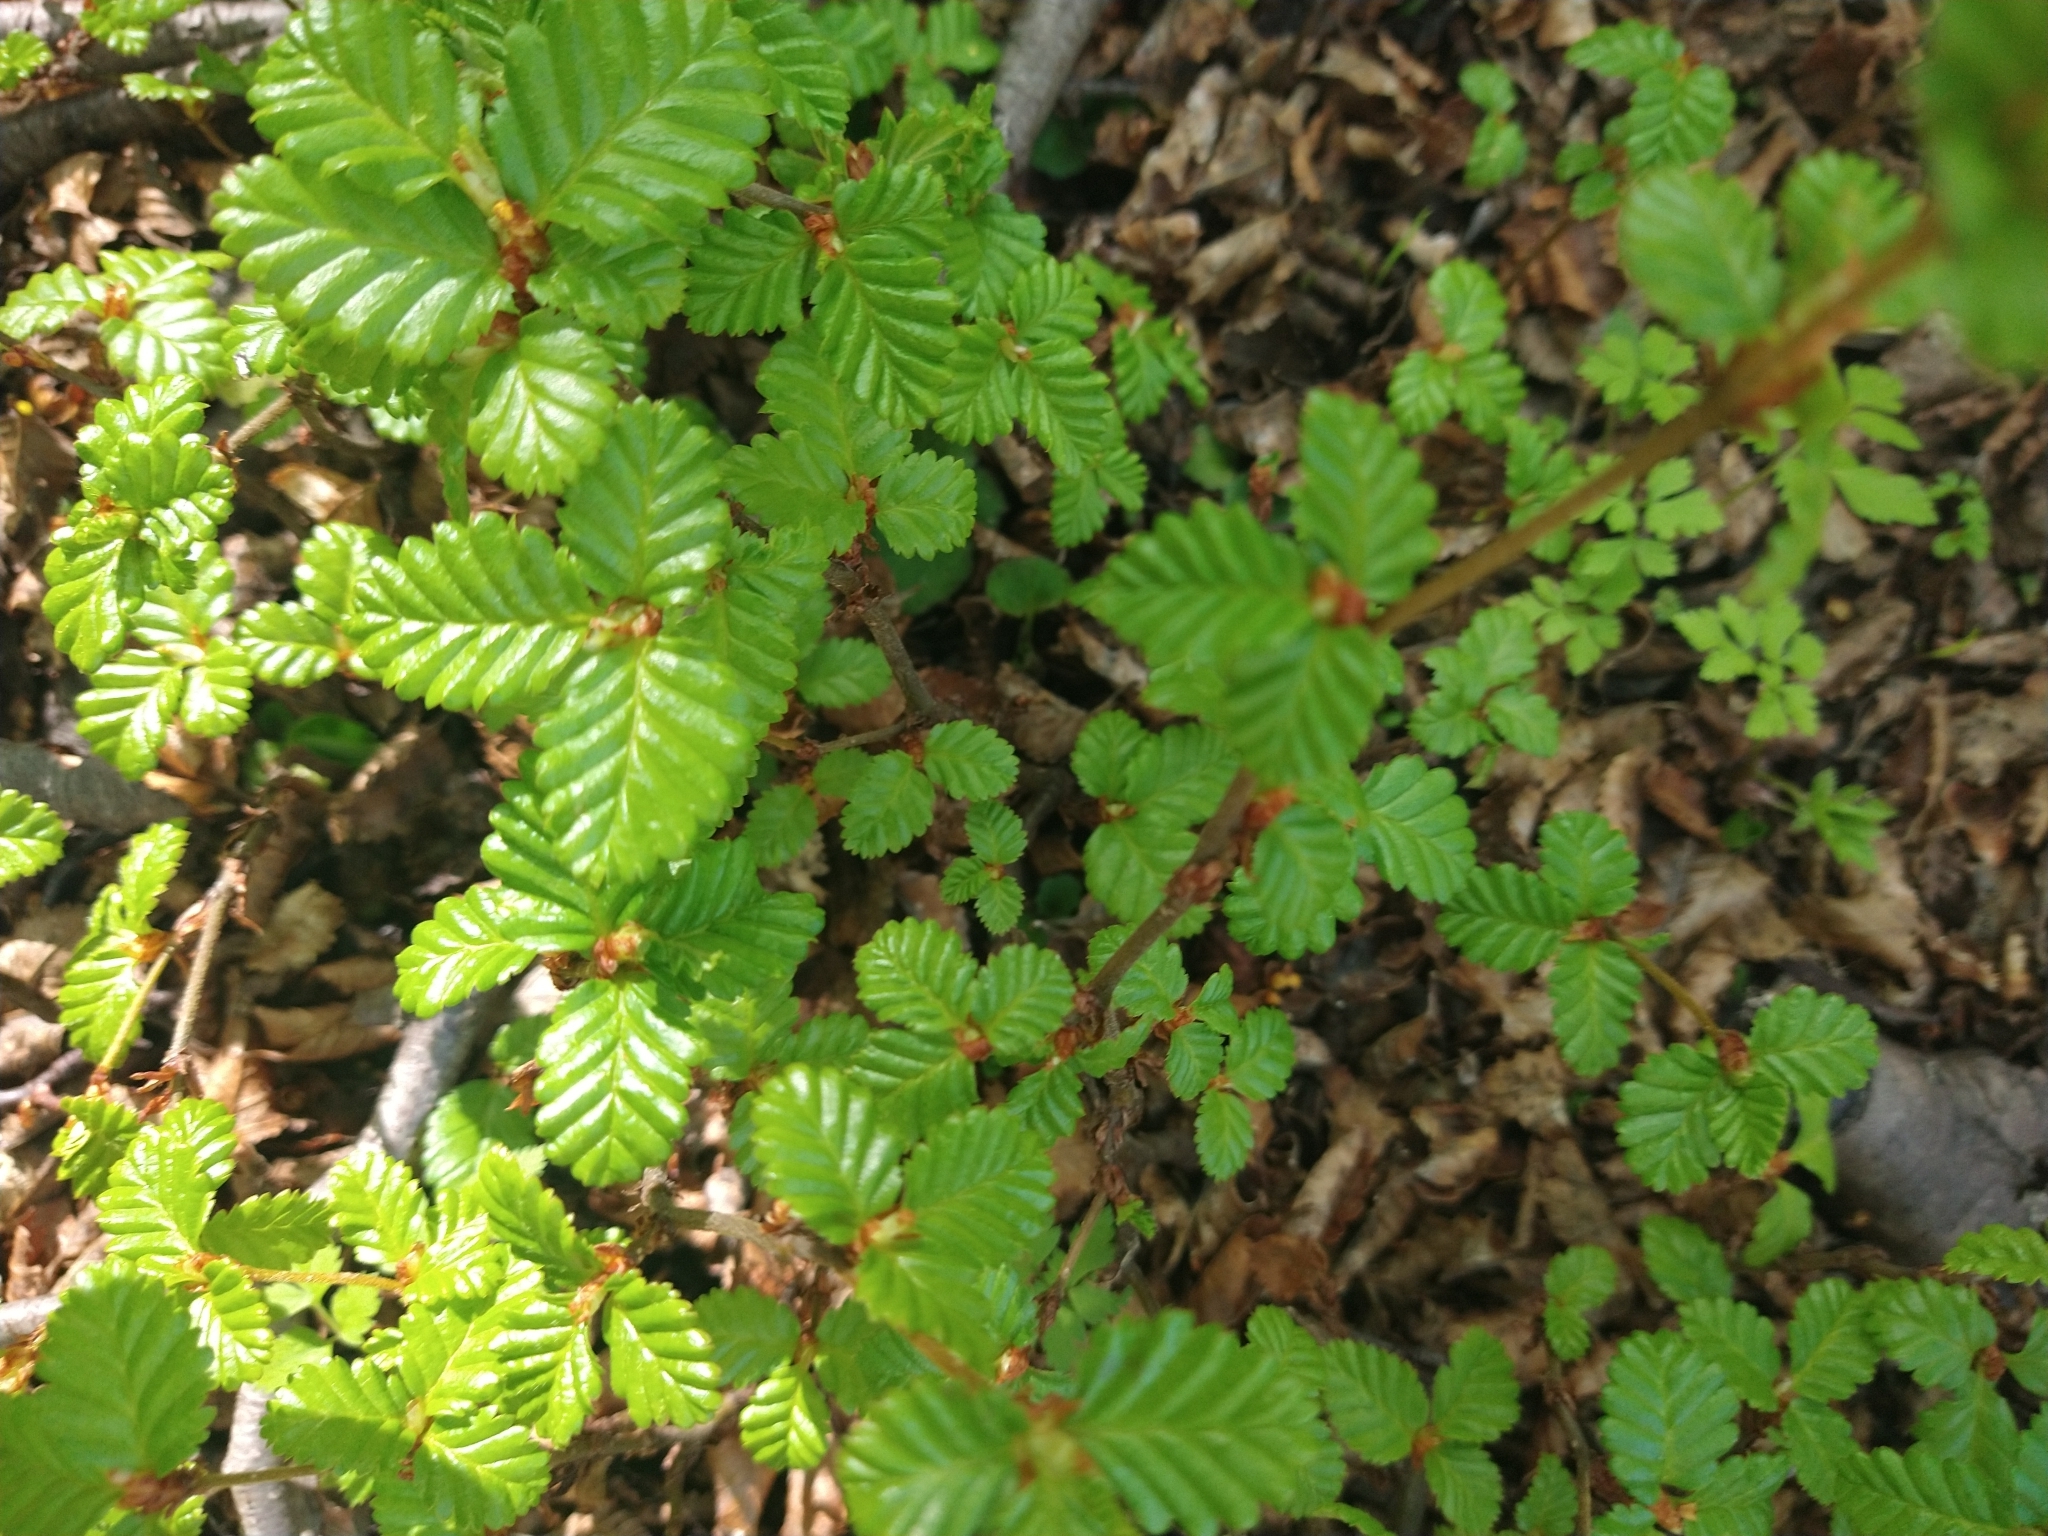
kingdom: Plantae
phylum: Tracheophyta
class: Magnoliopsida
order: Fagales
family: Nothofagaceae
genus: Nothofagus
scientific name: Nothofagus pumilio
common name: Lenga beech
